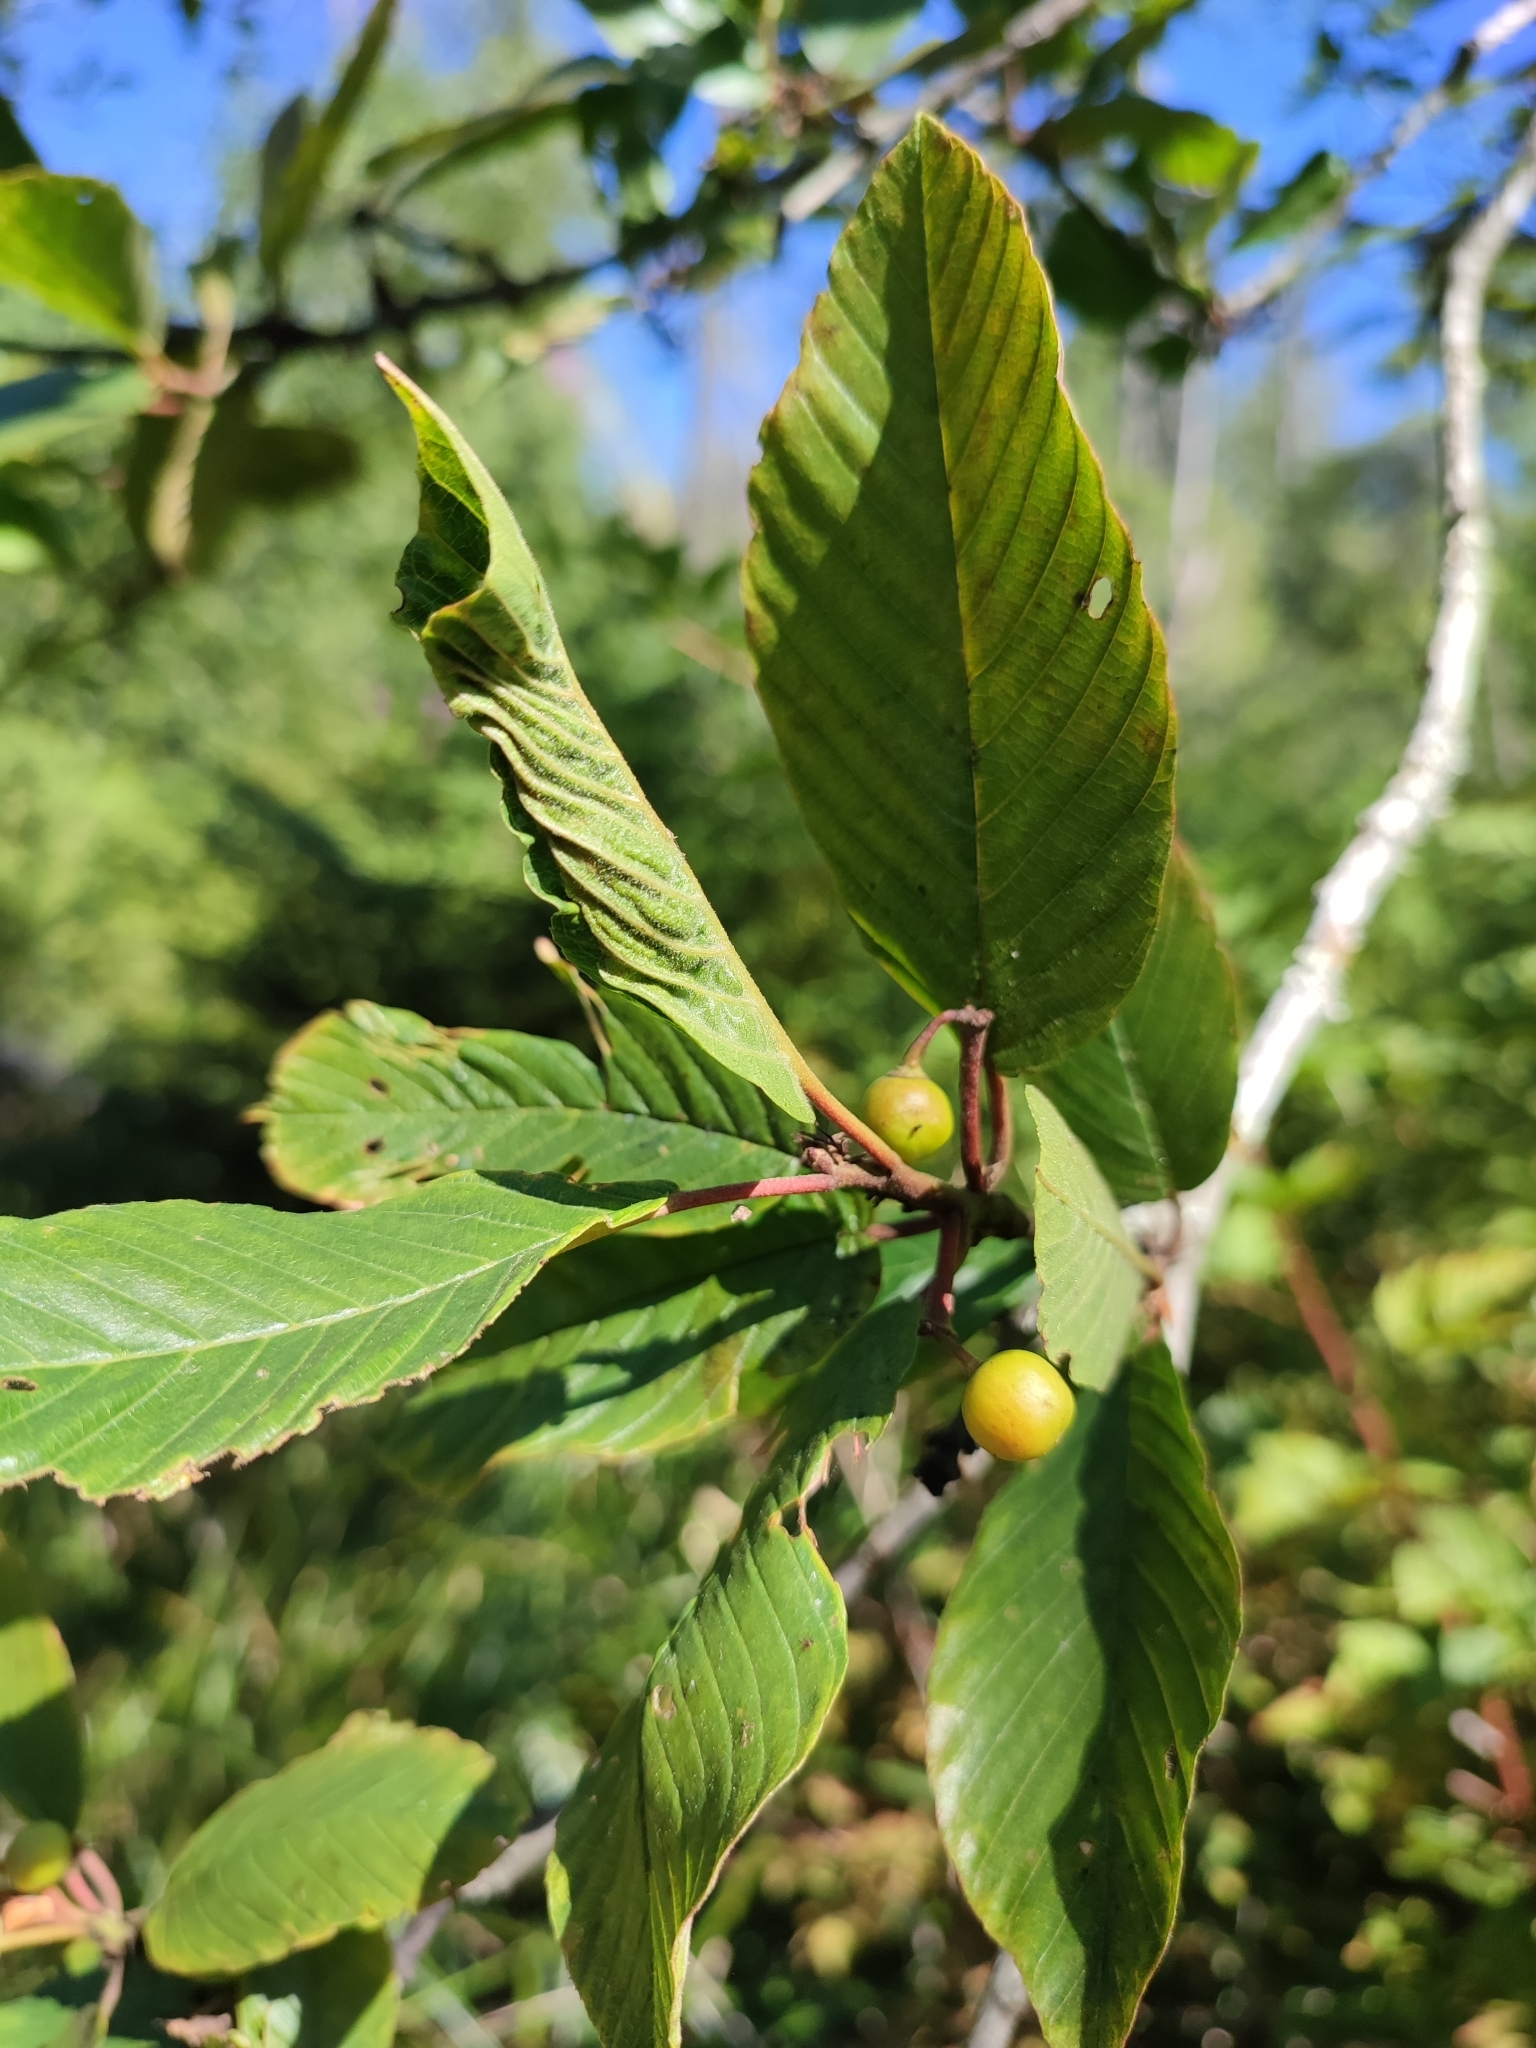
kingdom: Plantae
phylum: Tracheophyta
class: Magnoliopsida
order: Rosales
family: Rhamnaceae
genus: Frangula
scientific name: Frangula purshiana
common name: Cascara buckthorn
